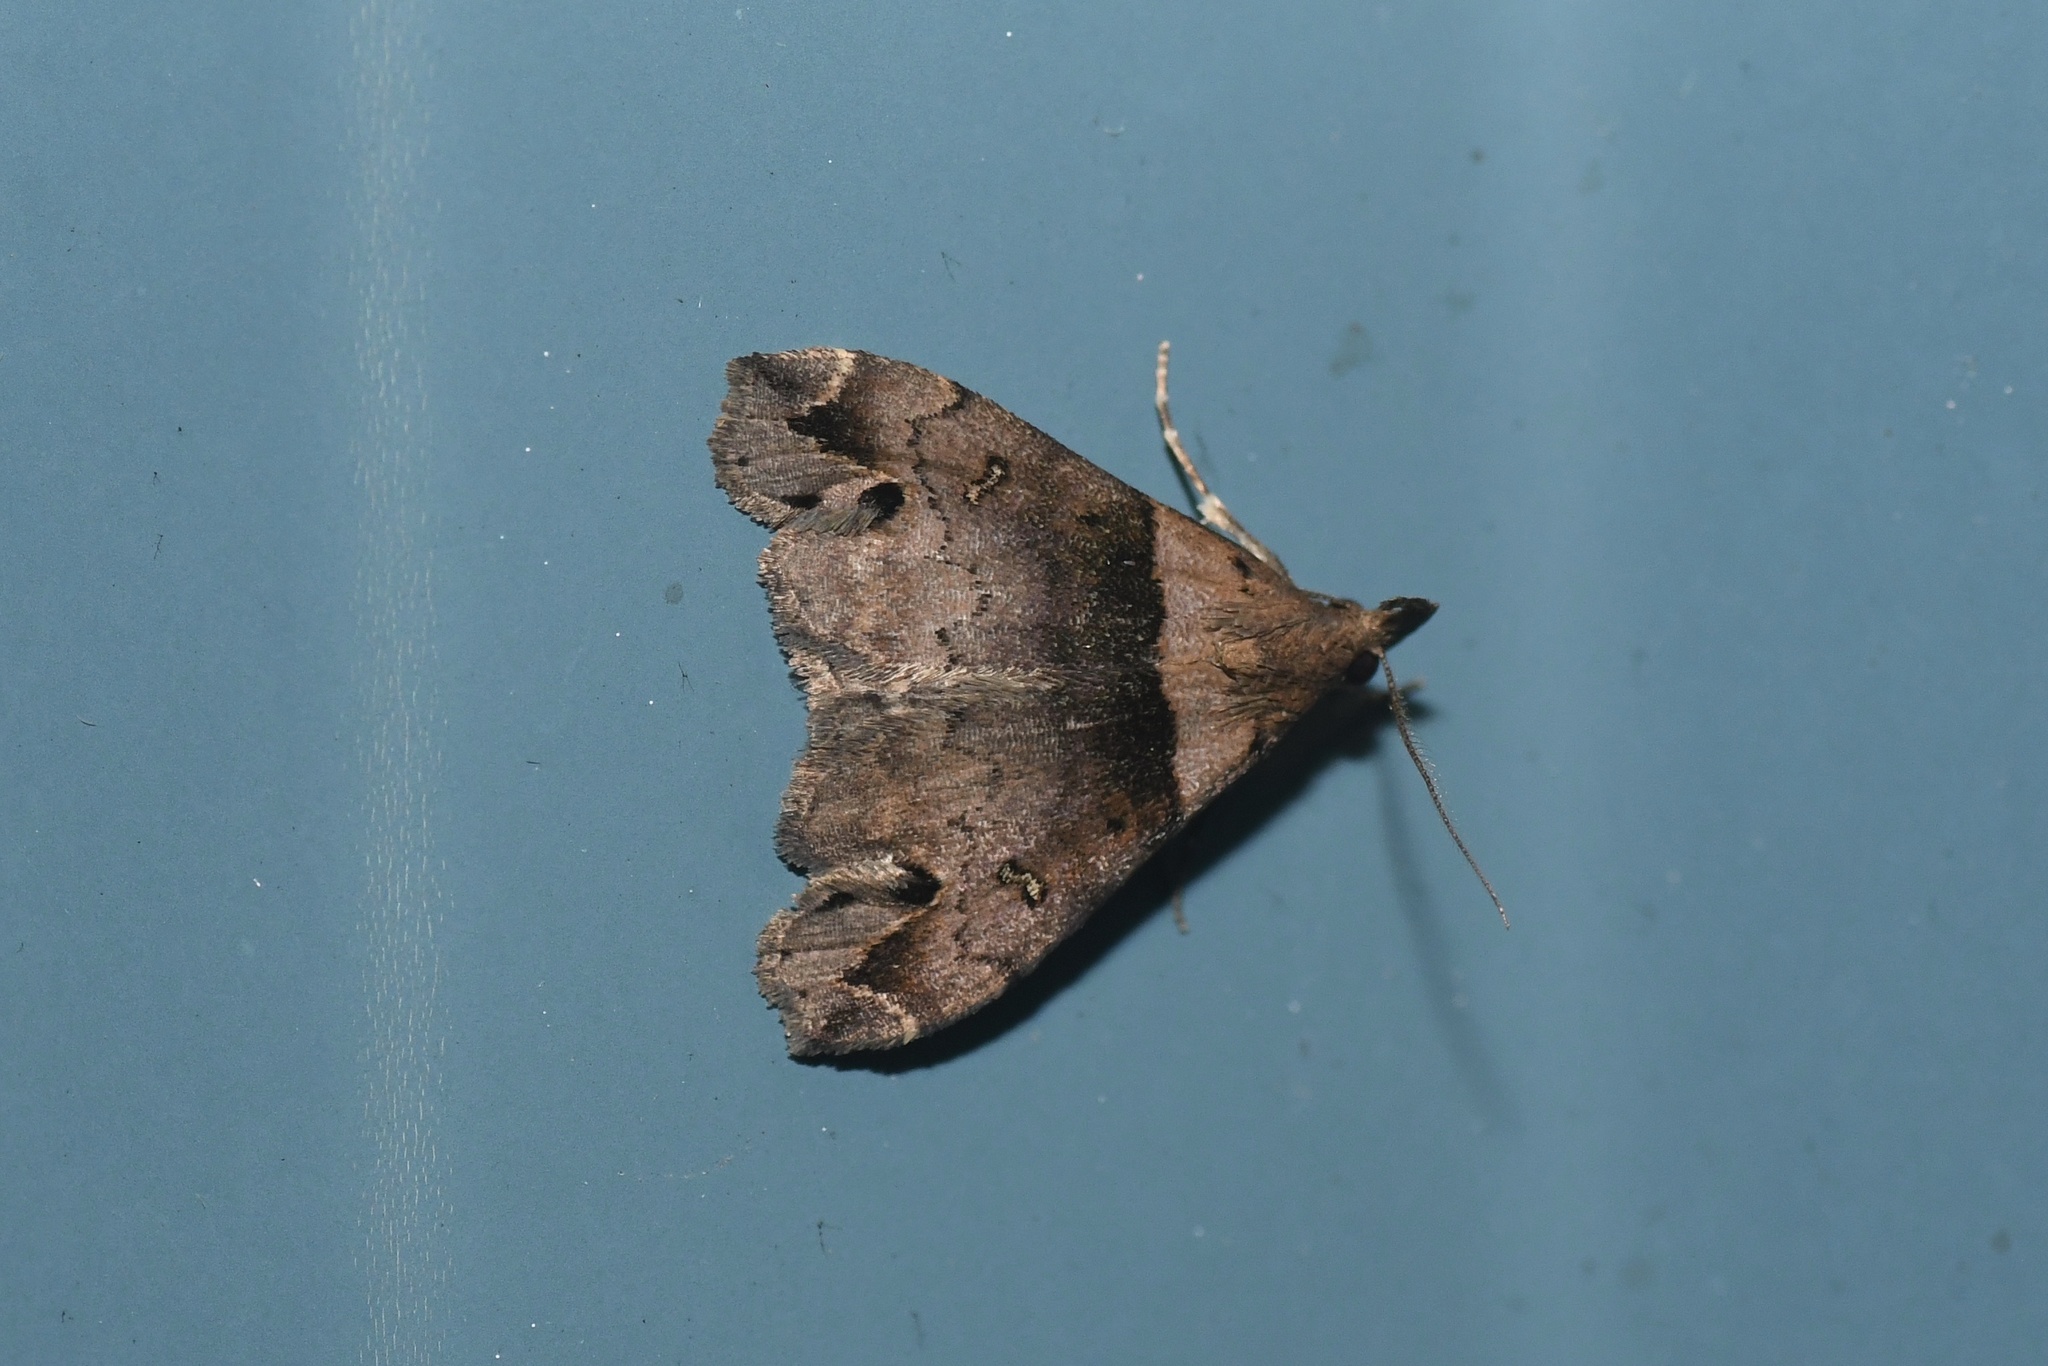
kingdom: Animalia
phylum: Arthropoda
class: Insecta
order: Lepidoptera
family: Erebidae
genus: Lascoria
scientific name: Lascoria ambigualis
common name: Ambiguous moth
